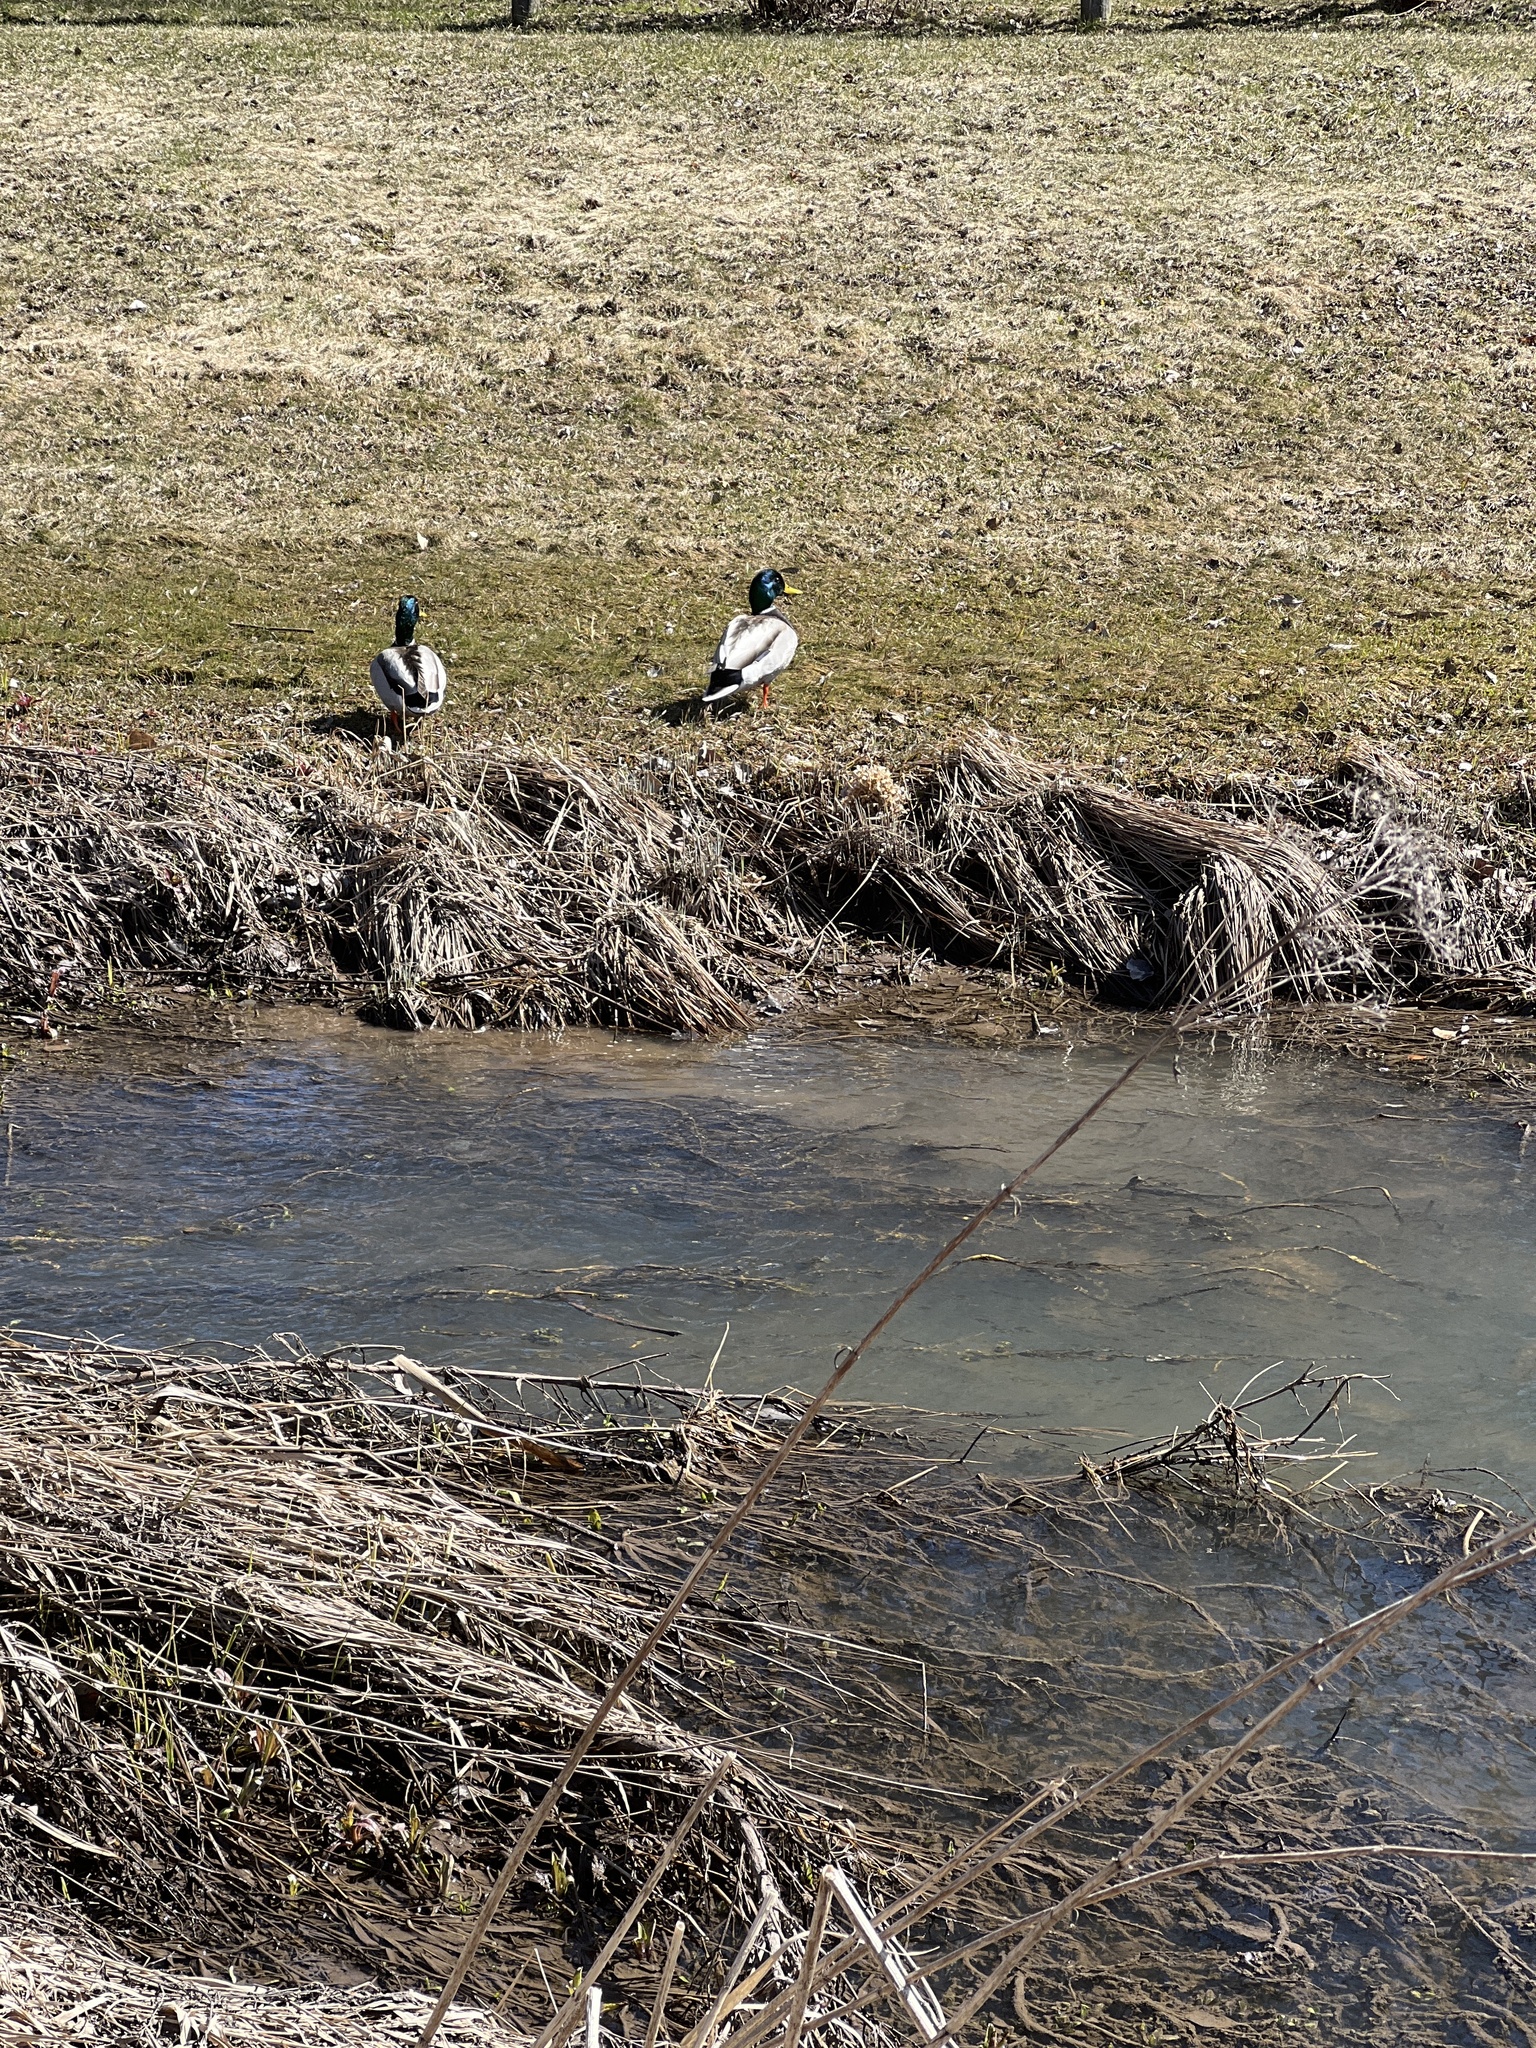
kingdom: Animalia
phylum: Chordata
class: Aves
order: Anseriformes
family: Anatidae
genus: Anas
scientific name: Anas platyrhynchos
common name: Mallard
